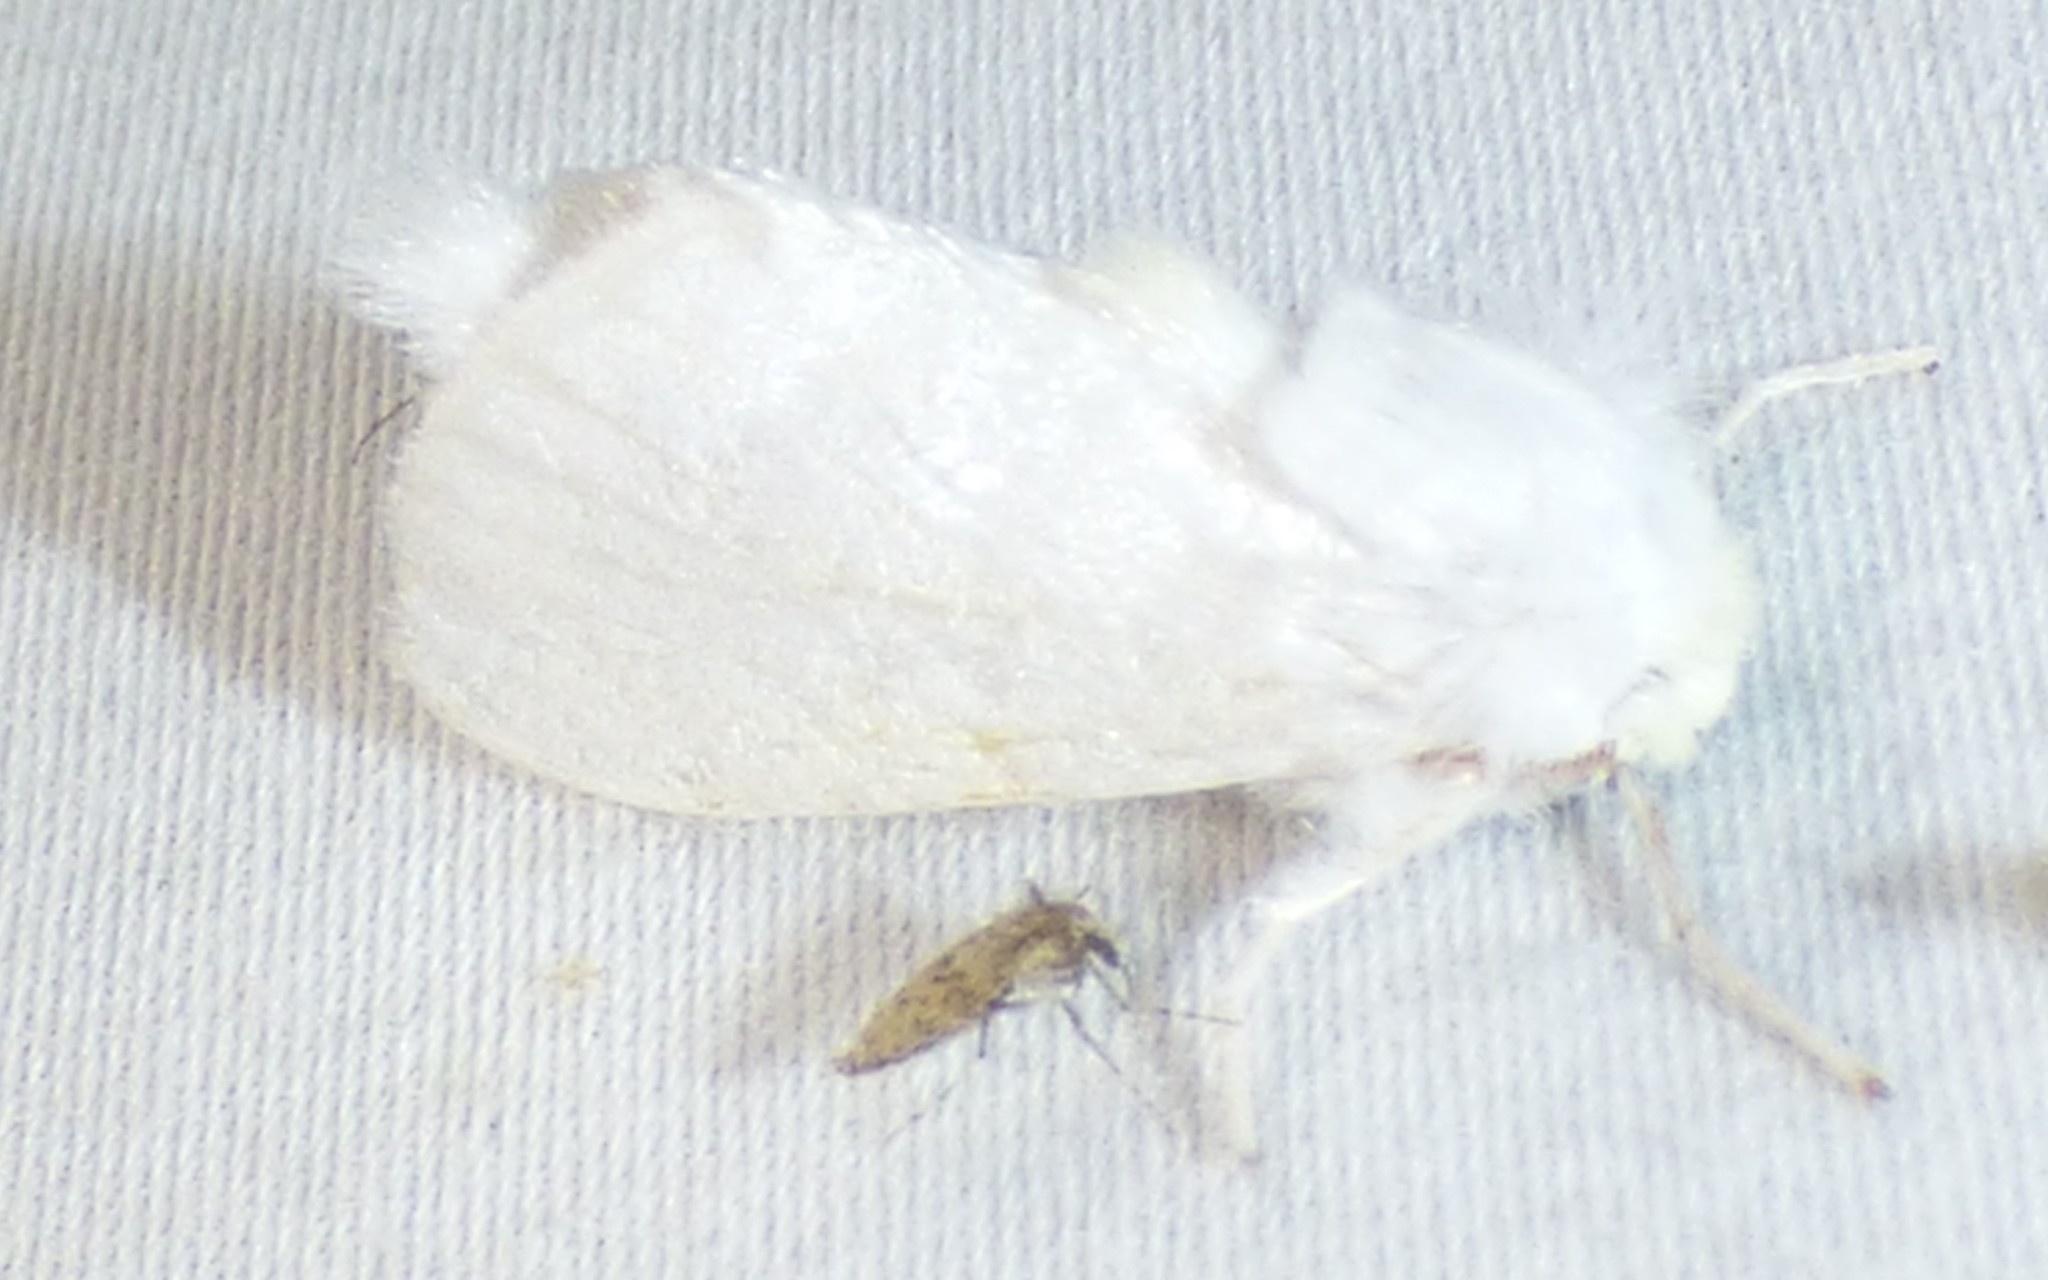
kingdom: Animalia
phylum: Arthropoda
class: Insecta
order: Lepidoptera
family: Megalopygidae
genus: Norape
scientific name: Norape cretata
